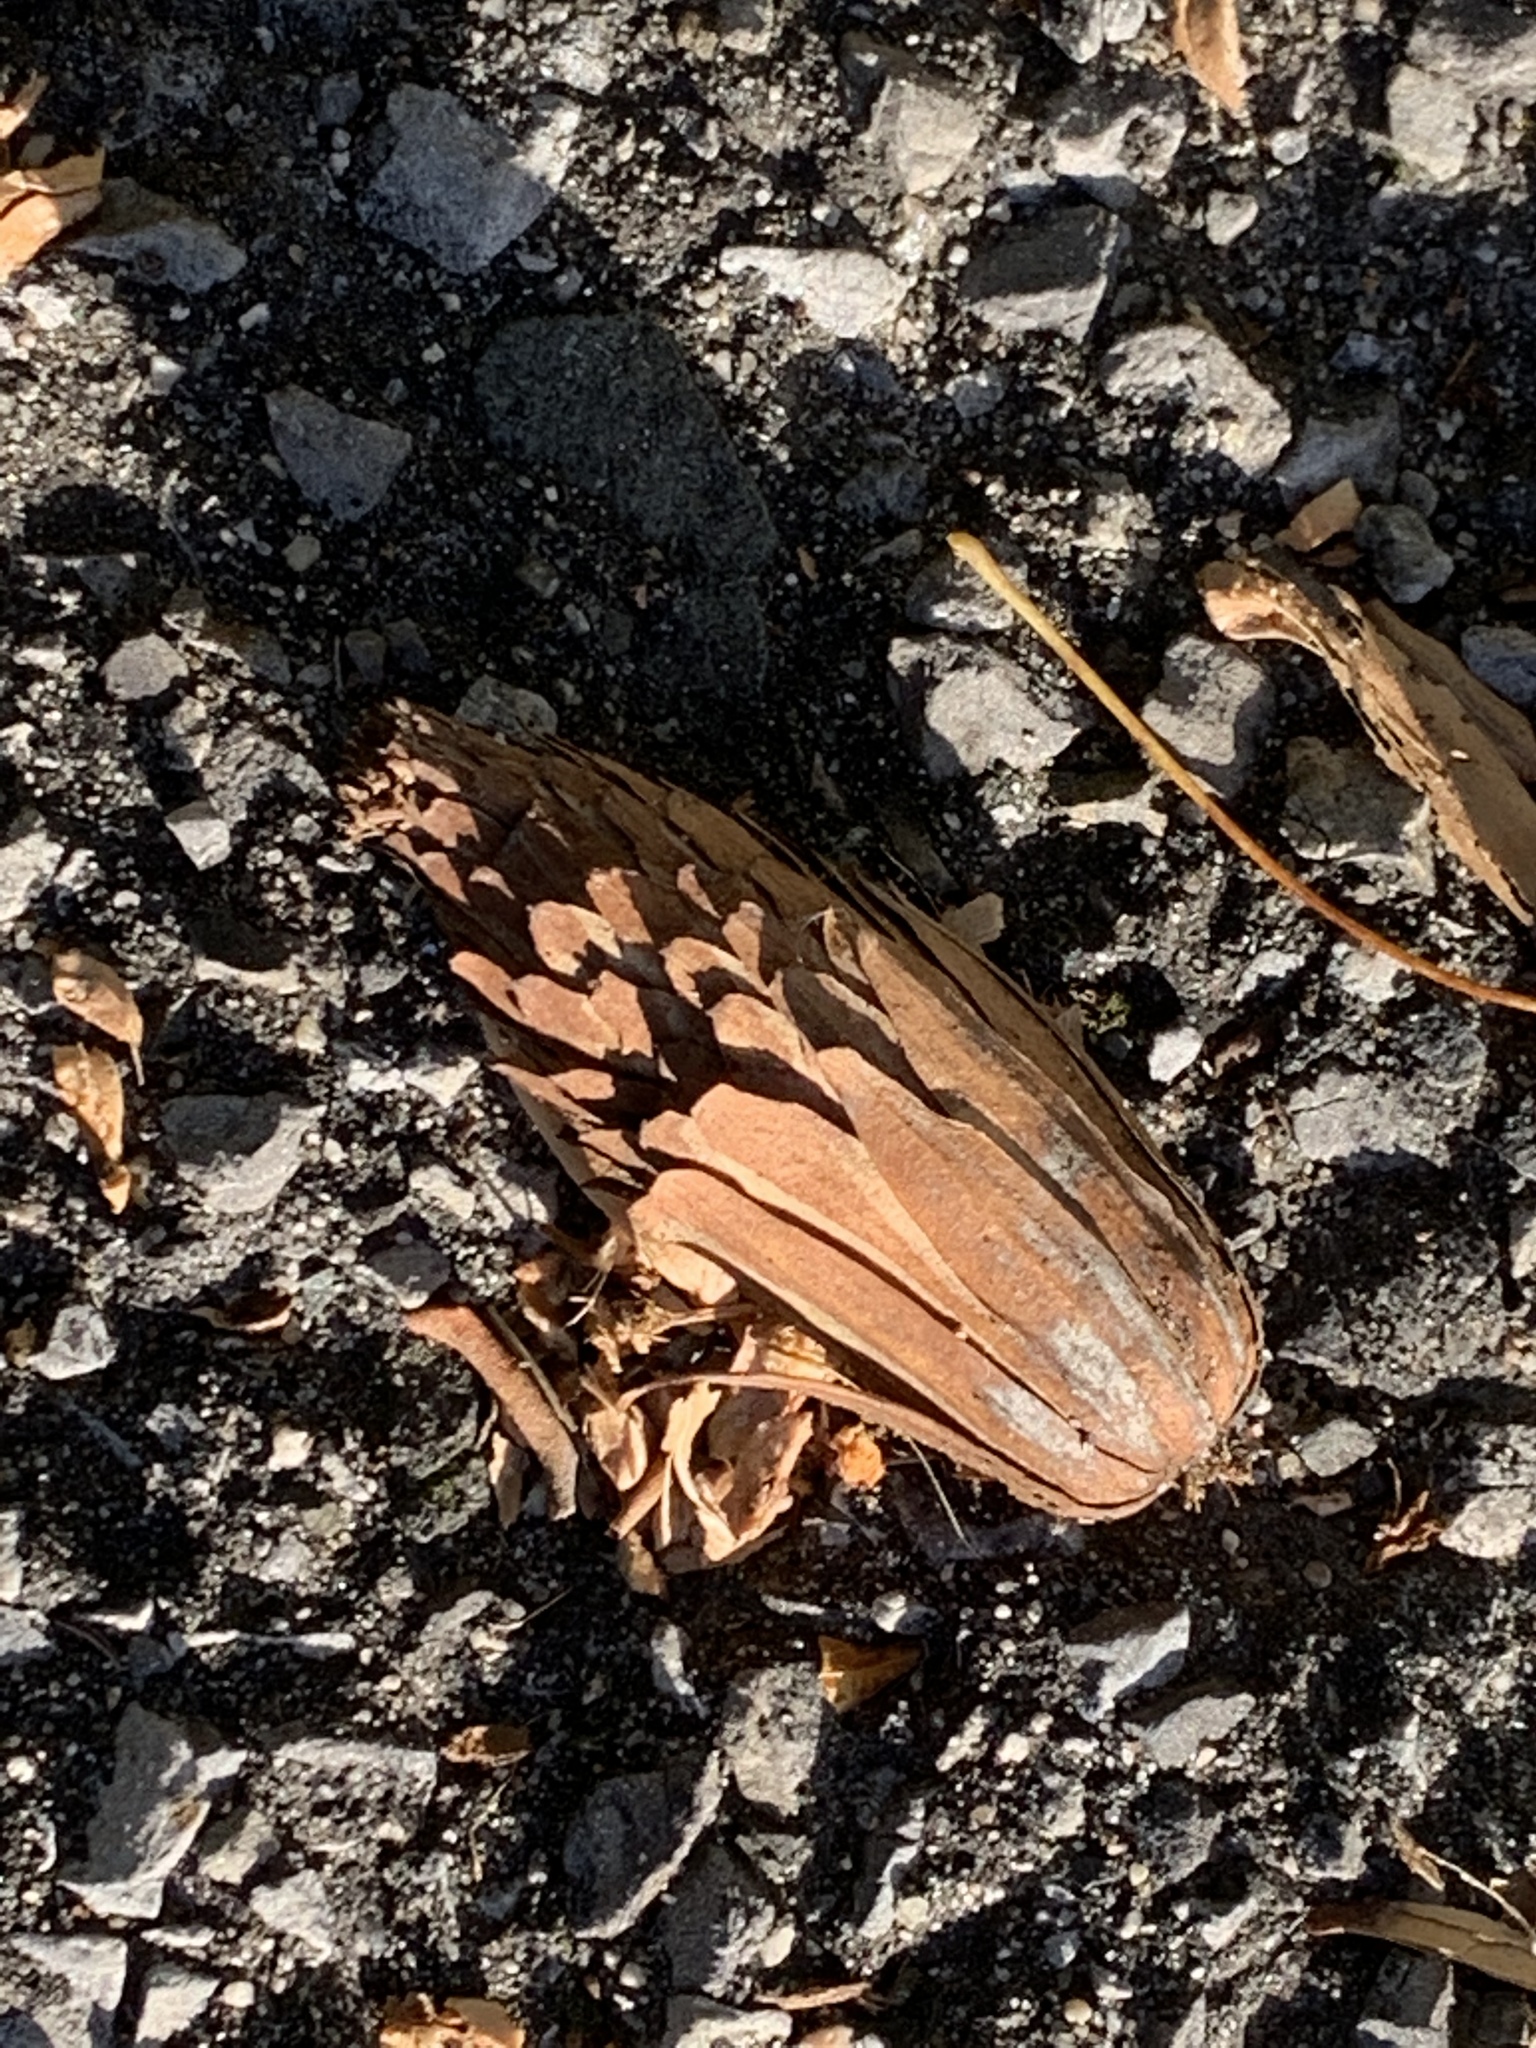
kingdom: Plantae
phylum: Tracheophyta
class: Magnoliopsida
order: Magnoliales
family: Magnoliaceae
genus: Liriodendron
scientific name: Liriodendron tulipifera
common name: Tulip tree
